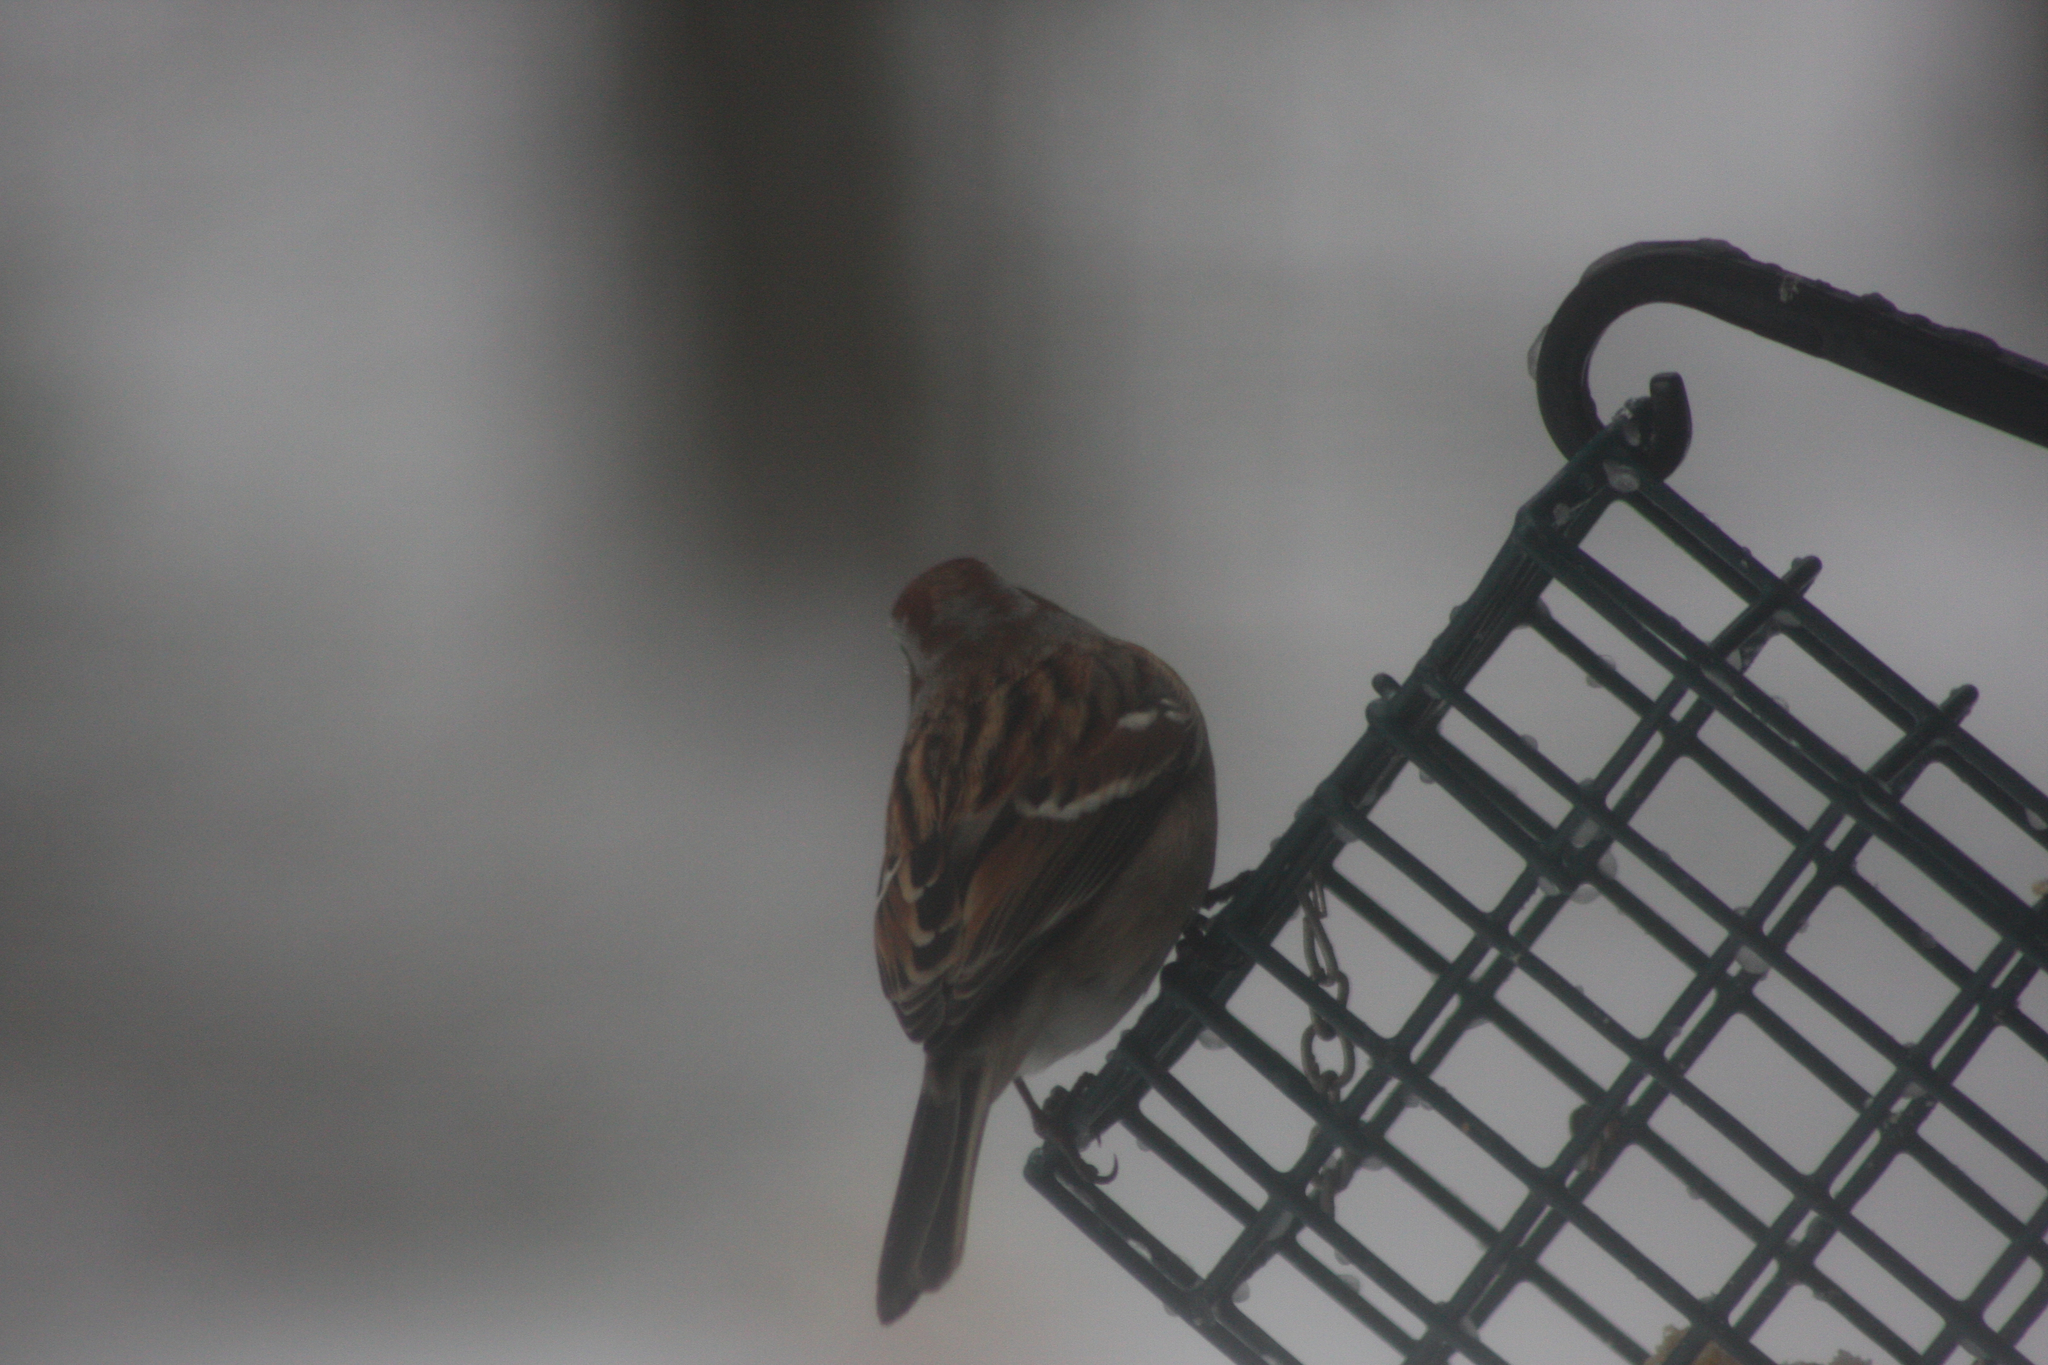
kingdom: Animalia
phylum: Chordata
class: Aves
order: Passeriformes
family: Passerellidae
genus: Spizelloides
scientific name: Spizelloides arborea
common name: American tree sparrow
